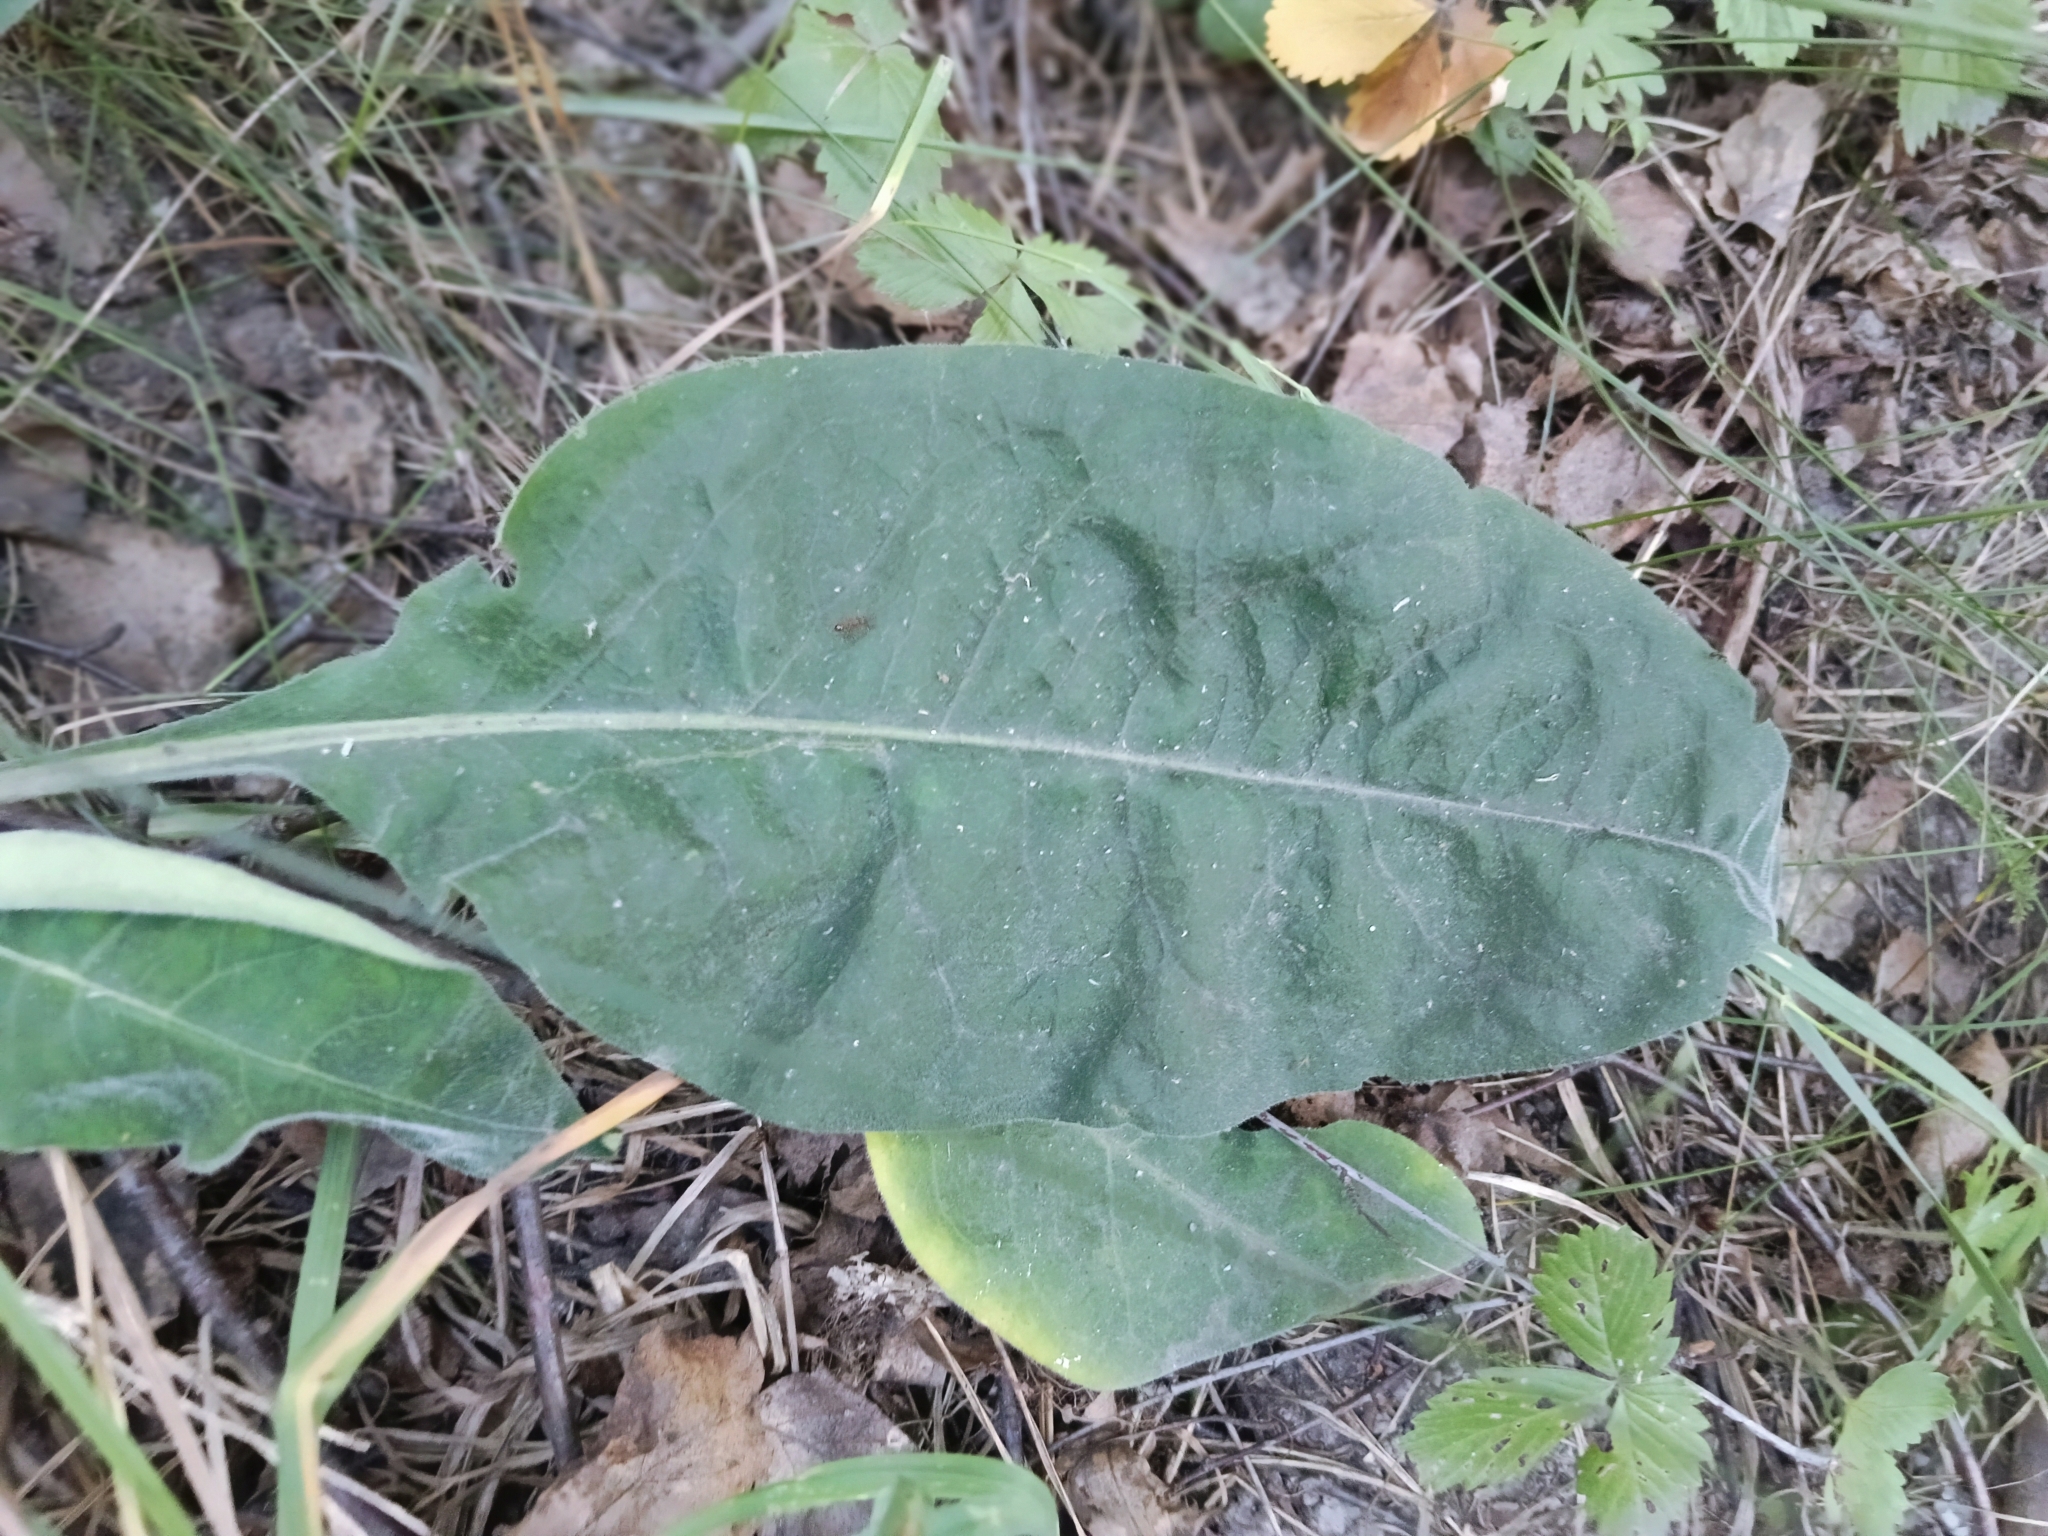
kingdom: Plantae
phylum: Tracheophyta
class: Magnoliopsida
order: Boraginales
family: Boraginaceae
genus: Pulmonaria
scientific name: Pulmonaria mollis
